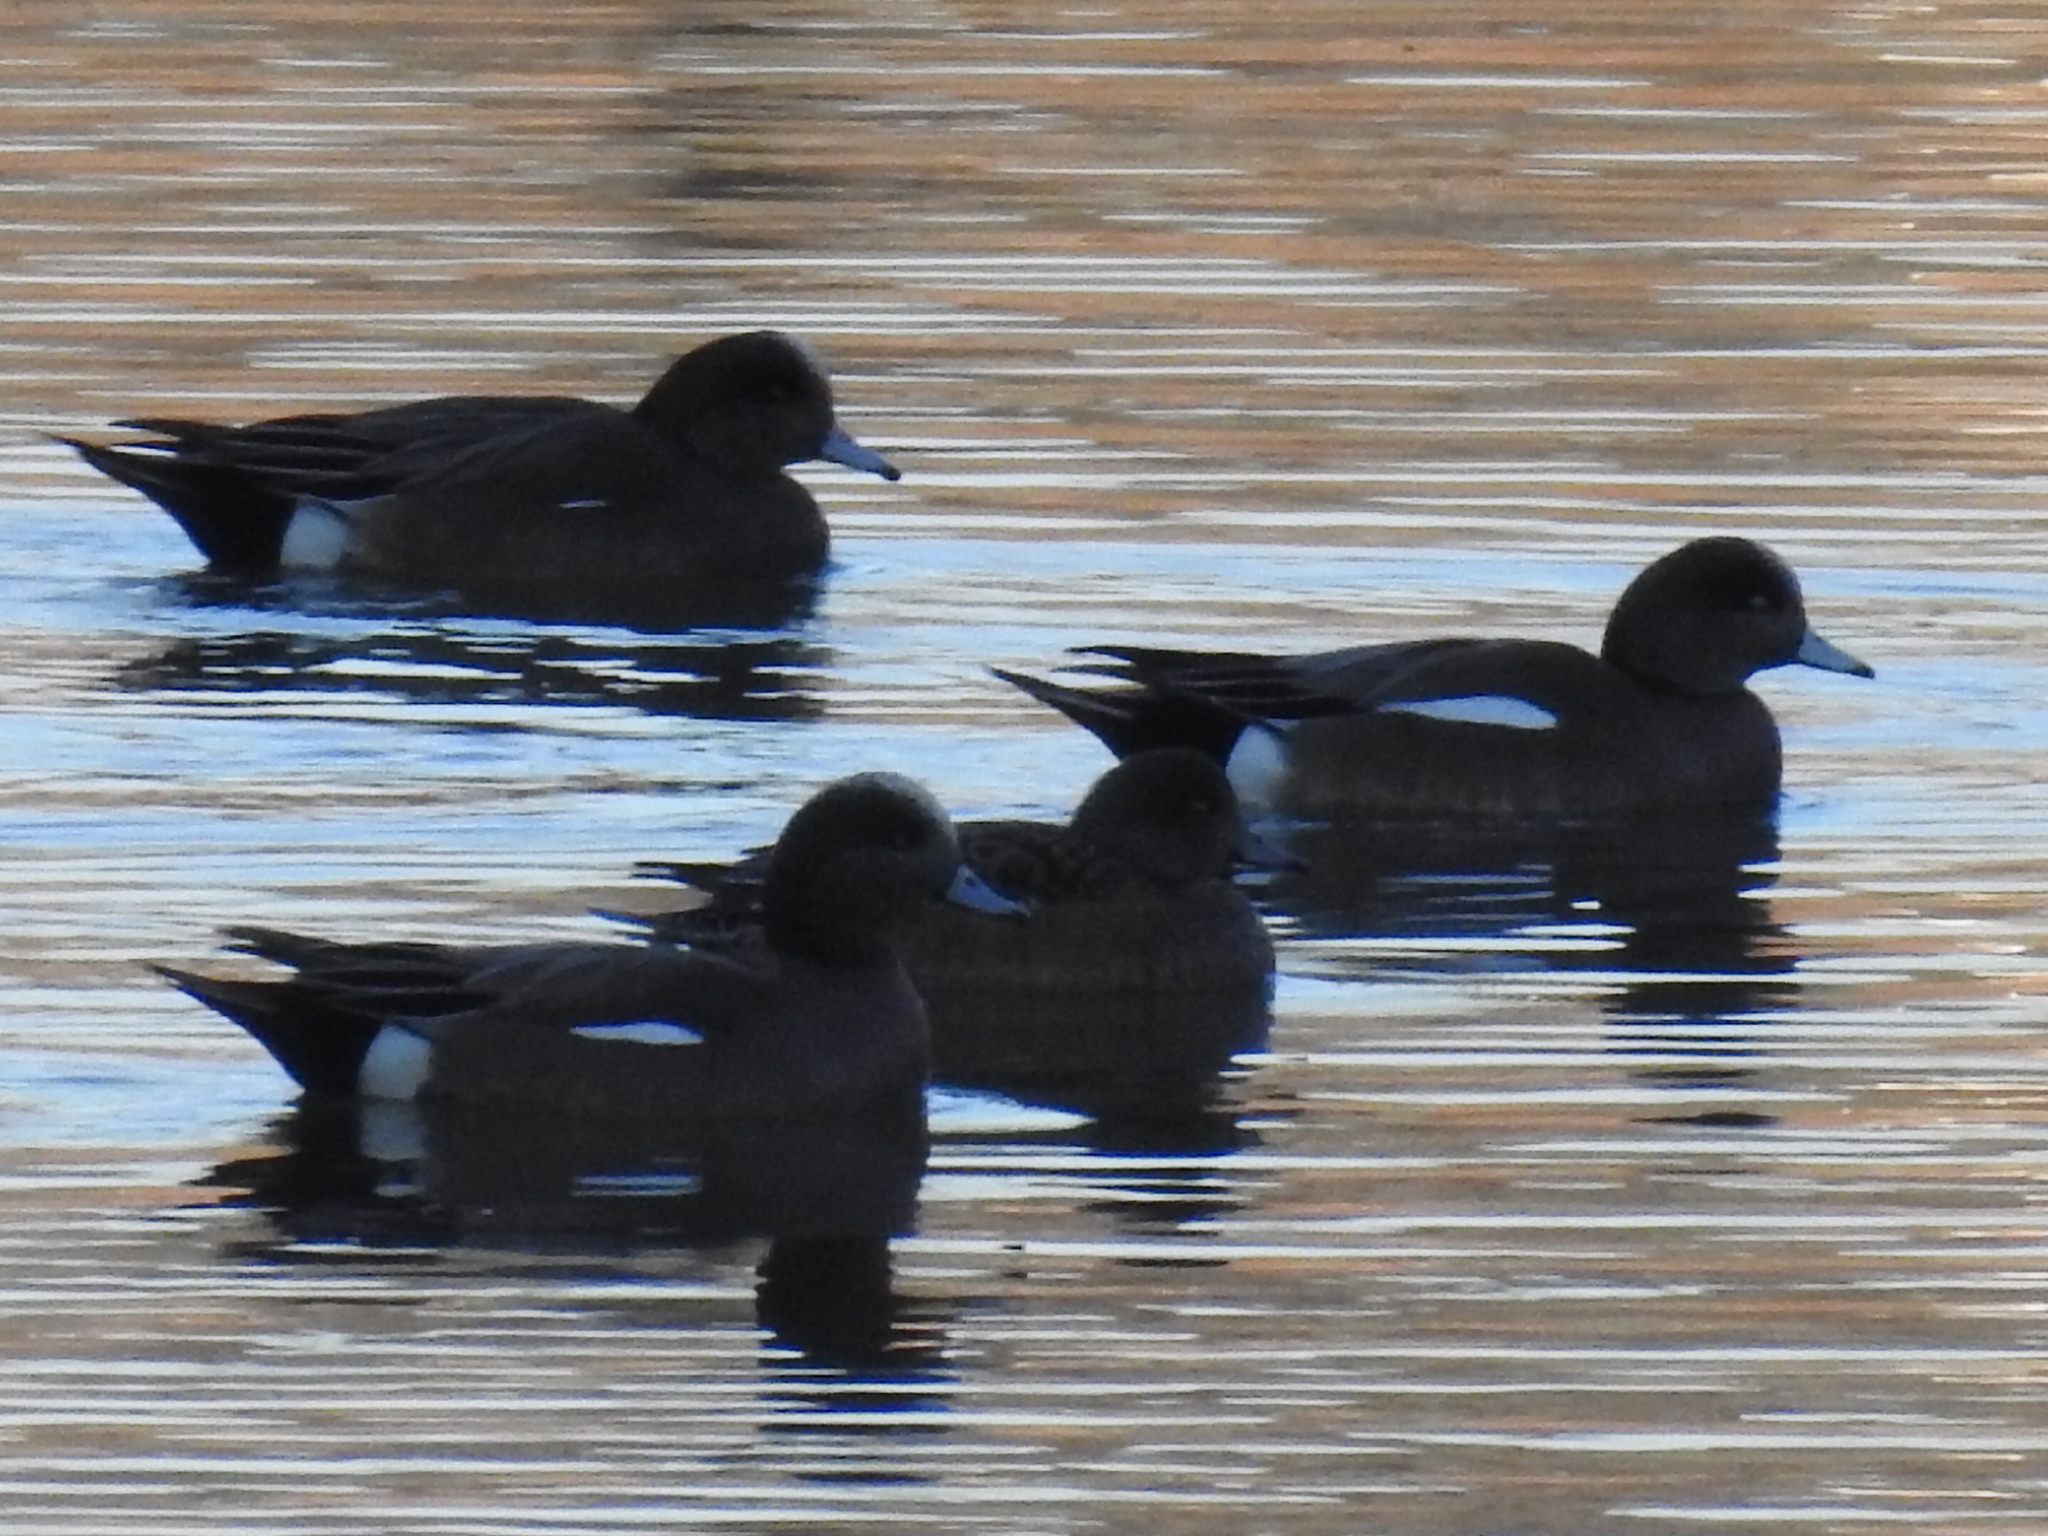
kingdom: Animalia
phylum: Chordata
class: Aves
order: Anseriformes
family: Anatidae
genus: Mareca
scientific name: Mareca americana
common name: American wigeon
